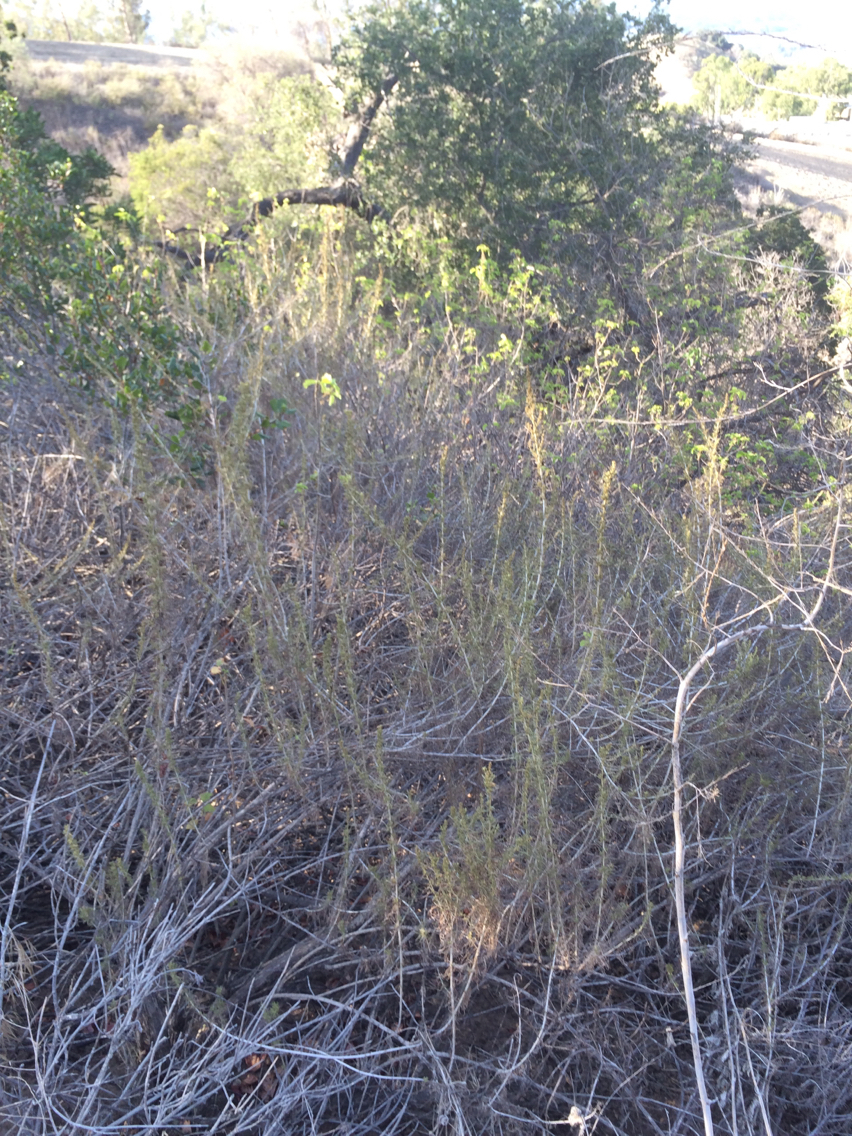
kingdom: Plantae
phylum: Tracheophyta
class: Magnoliopsida
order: Asterales
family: Asteraceae
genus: Artemisia
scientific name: Artemisia californica
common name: California sagebrush
